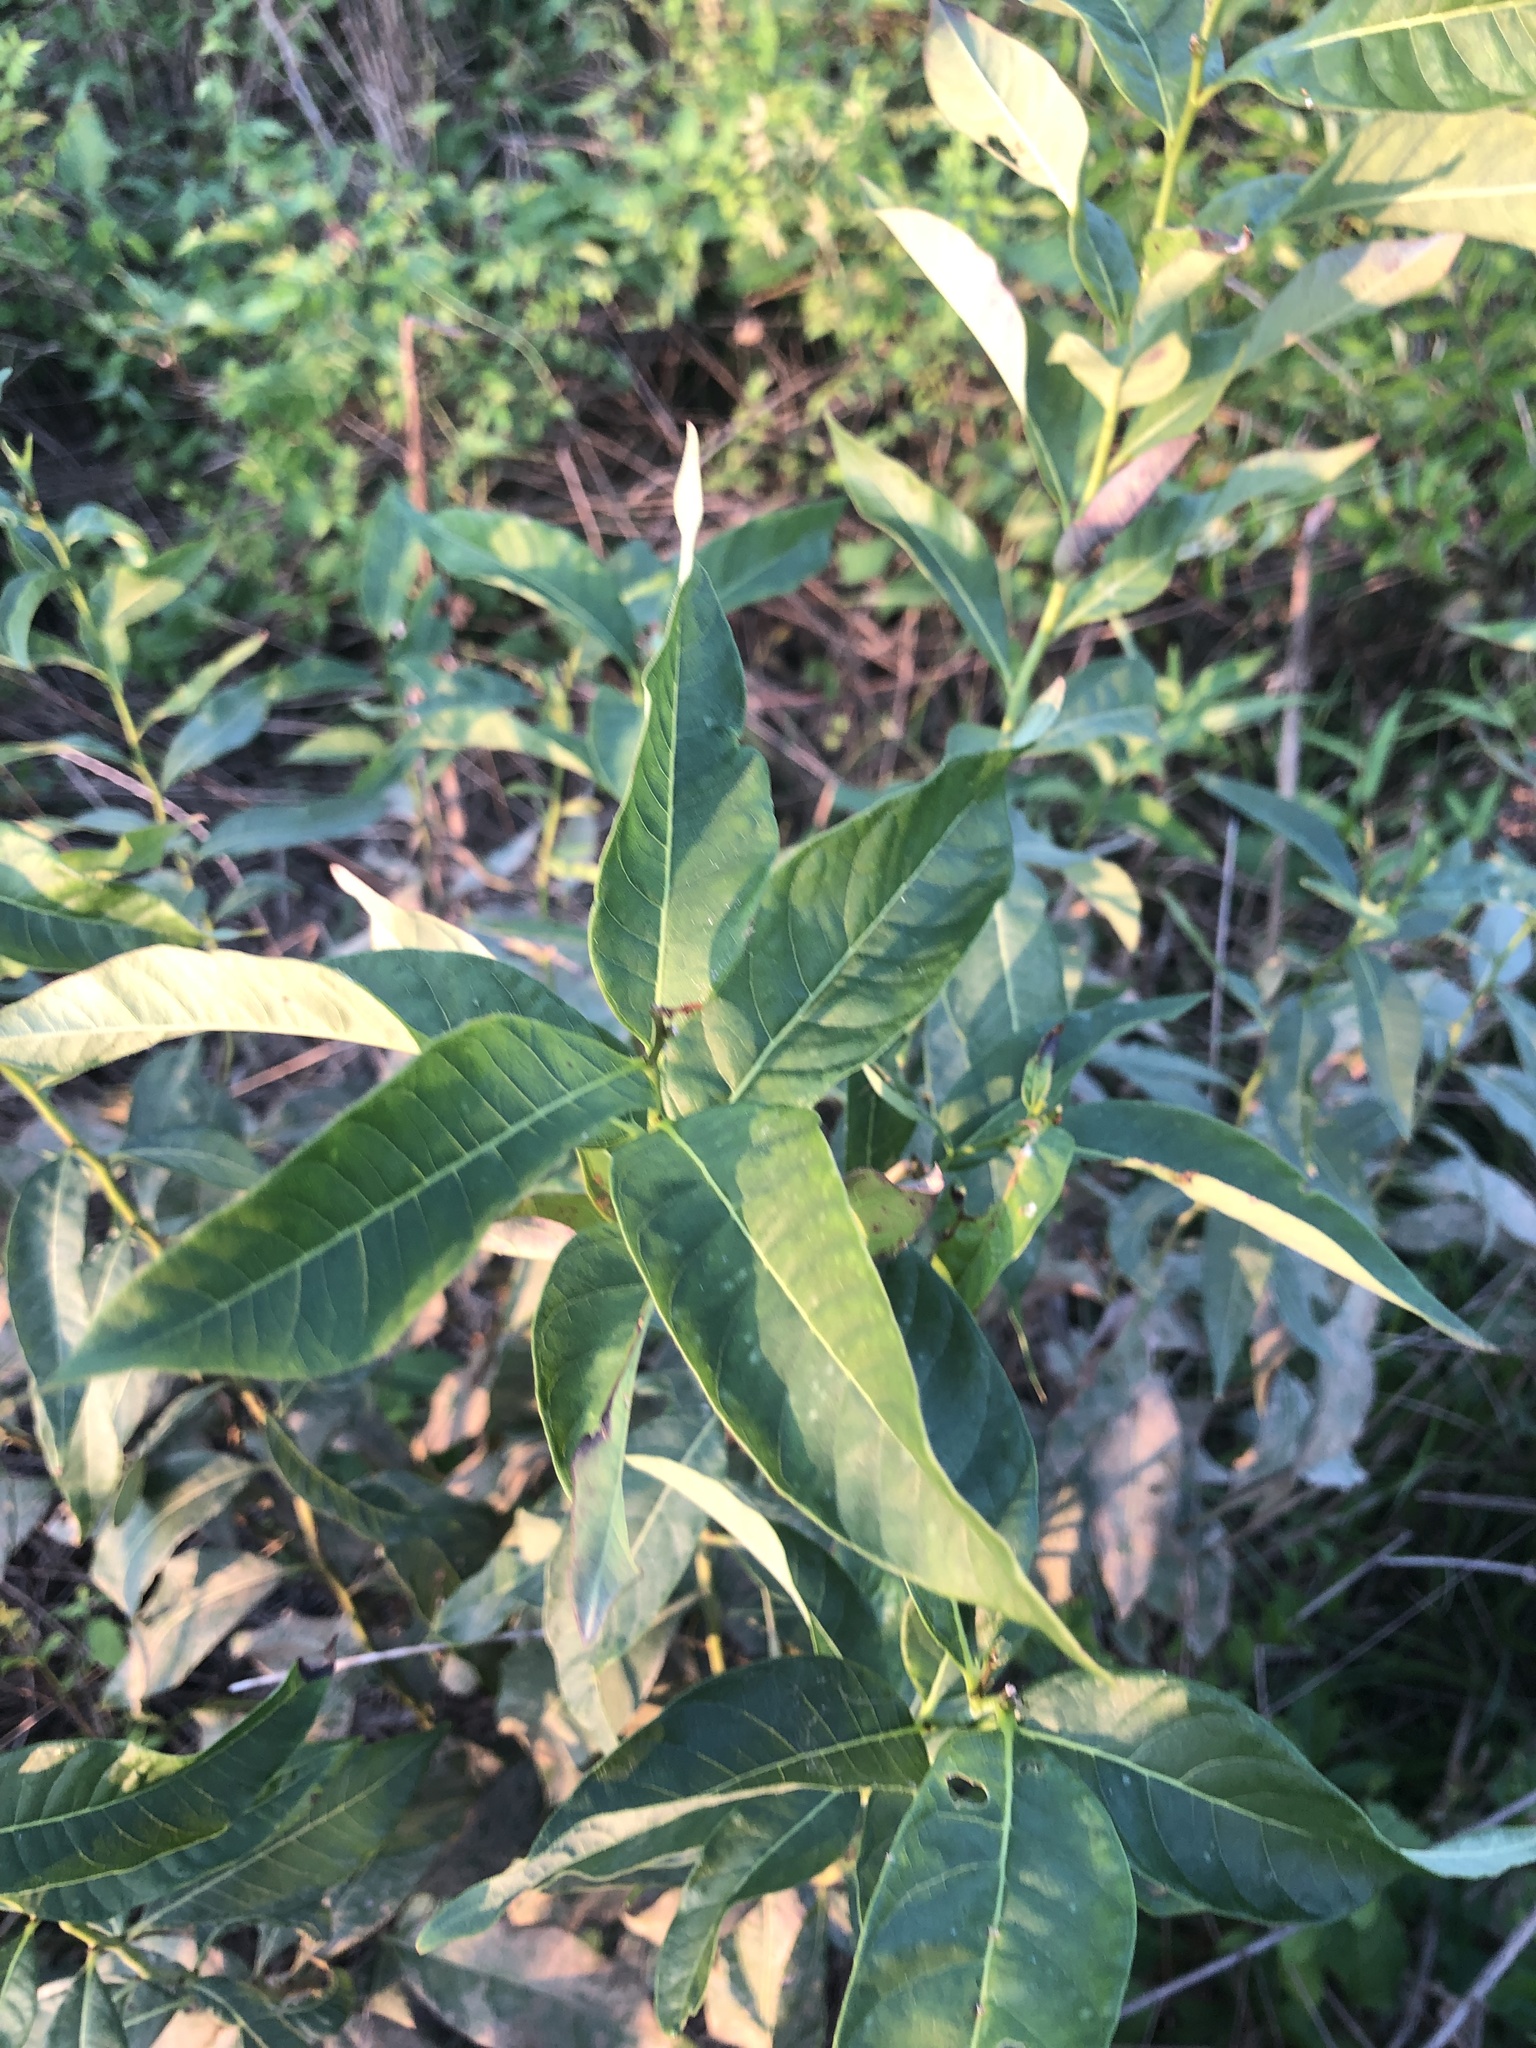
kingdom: Plantae
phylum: Tracheophyta
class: Magnoliopsida
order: Gentianales
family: Apocynaceae
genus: Amsonia
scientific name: Amsonia tabernaemontana
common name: Texas-star
